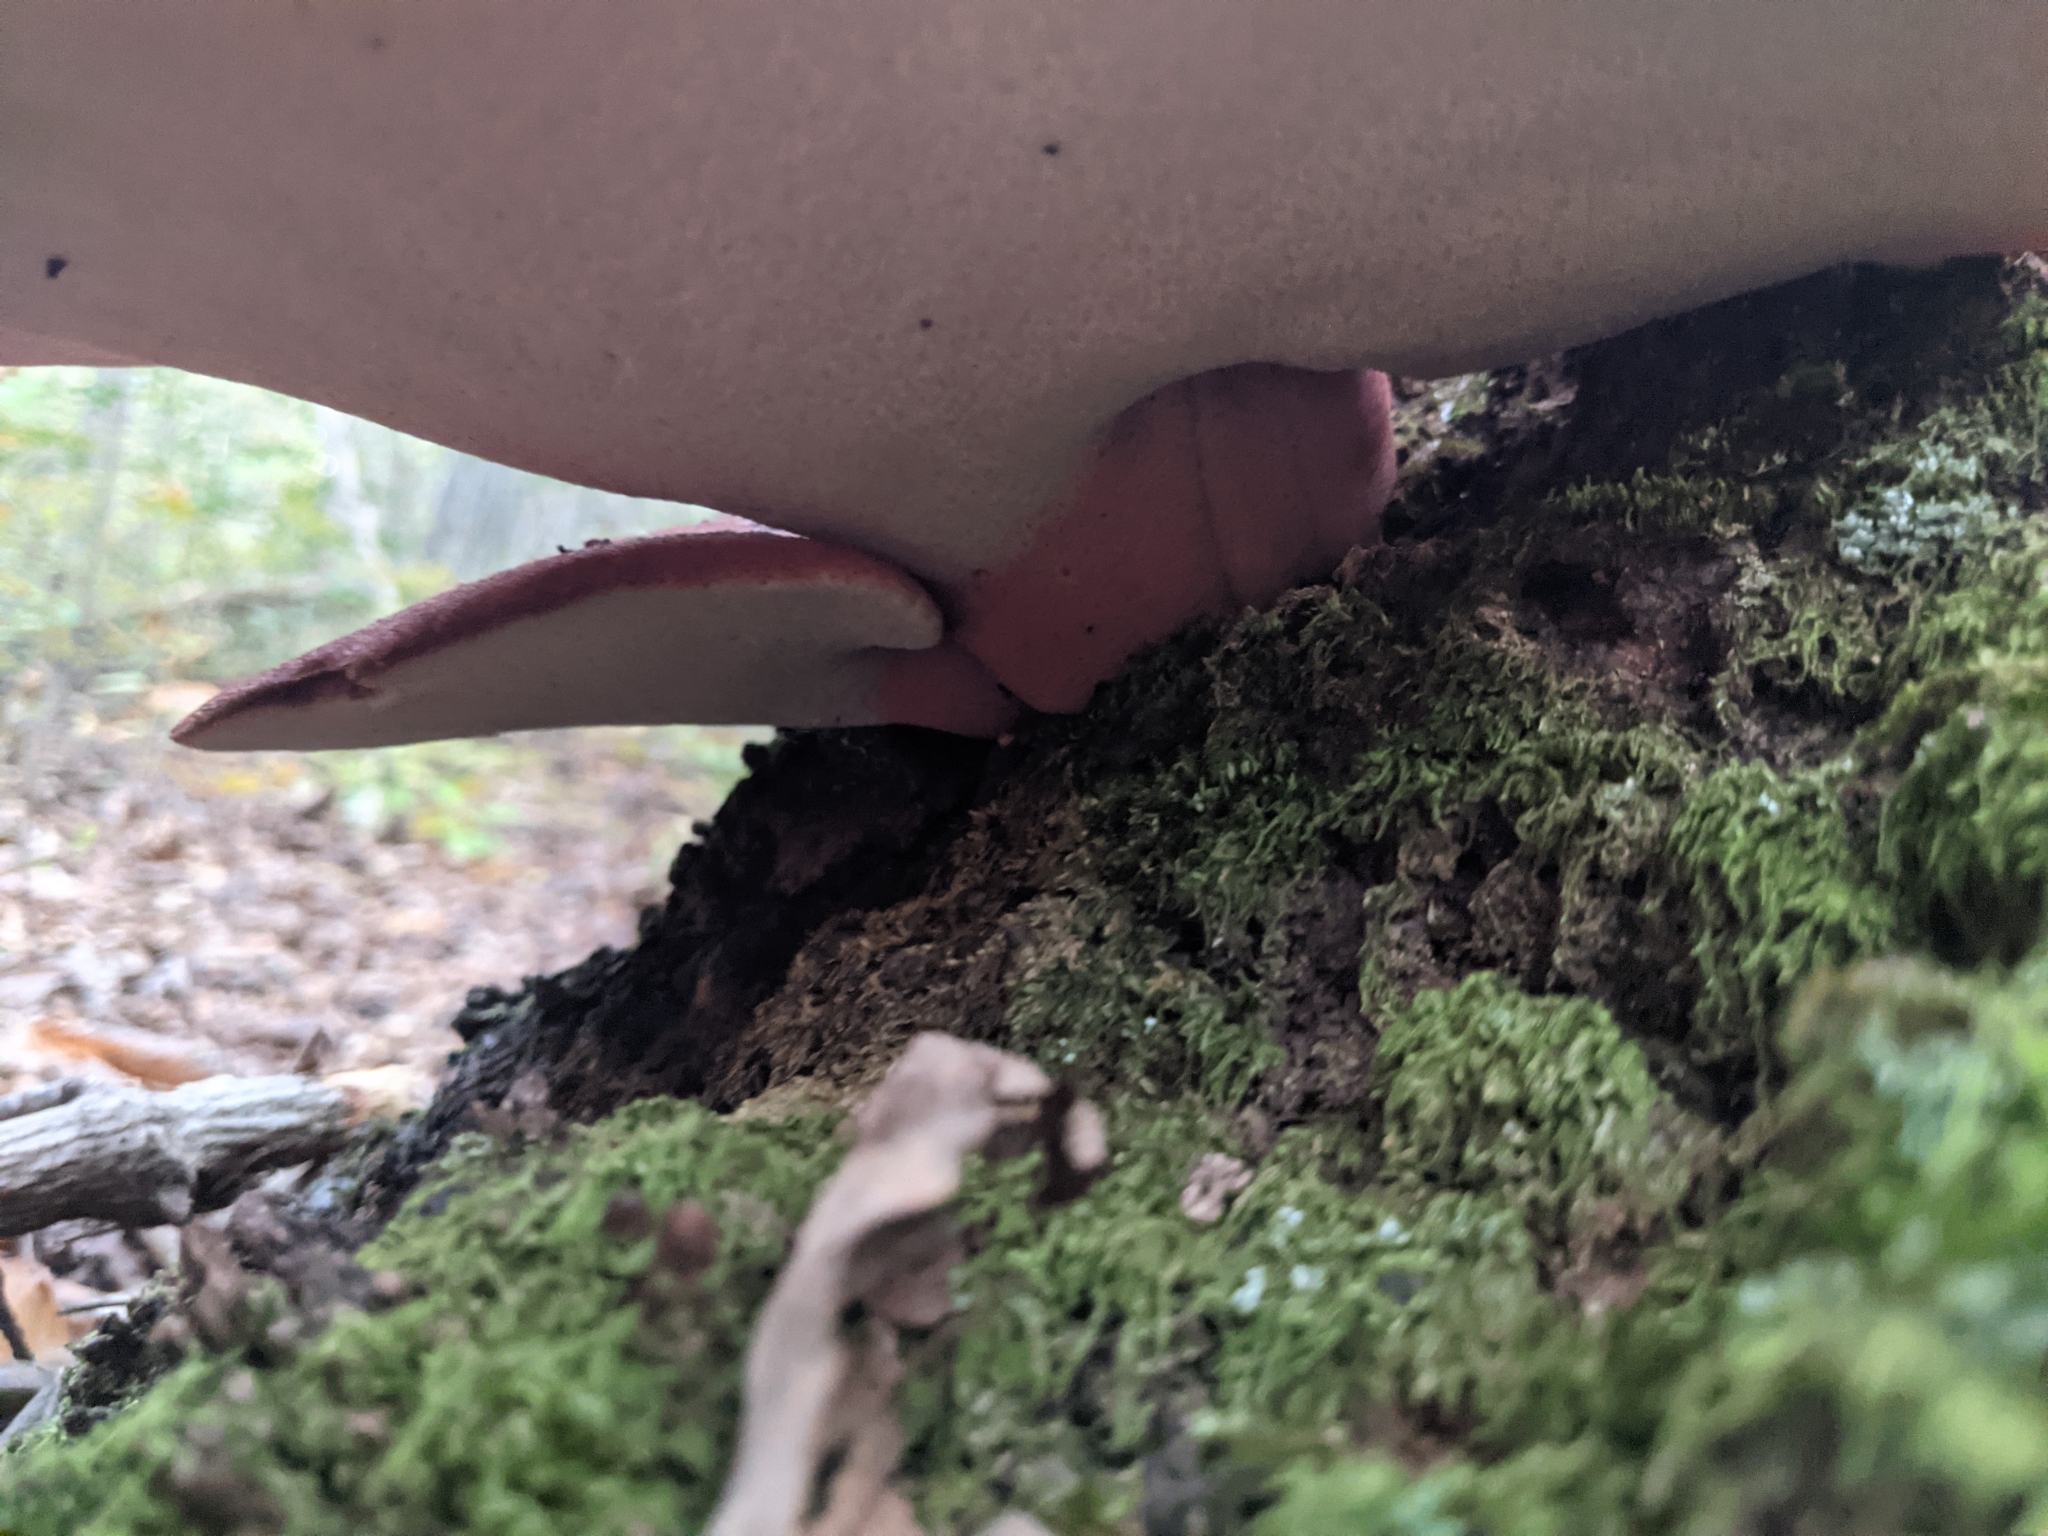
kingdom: Fungi
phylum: Basidiomycota
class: Agaricomycetes
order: Agaricales
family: Fistulinaceae
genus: Fistulina
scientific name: Fistulina hepatica
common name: Beef-steak fungus
